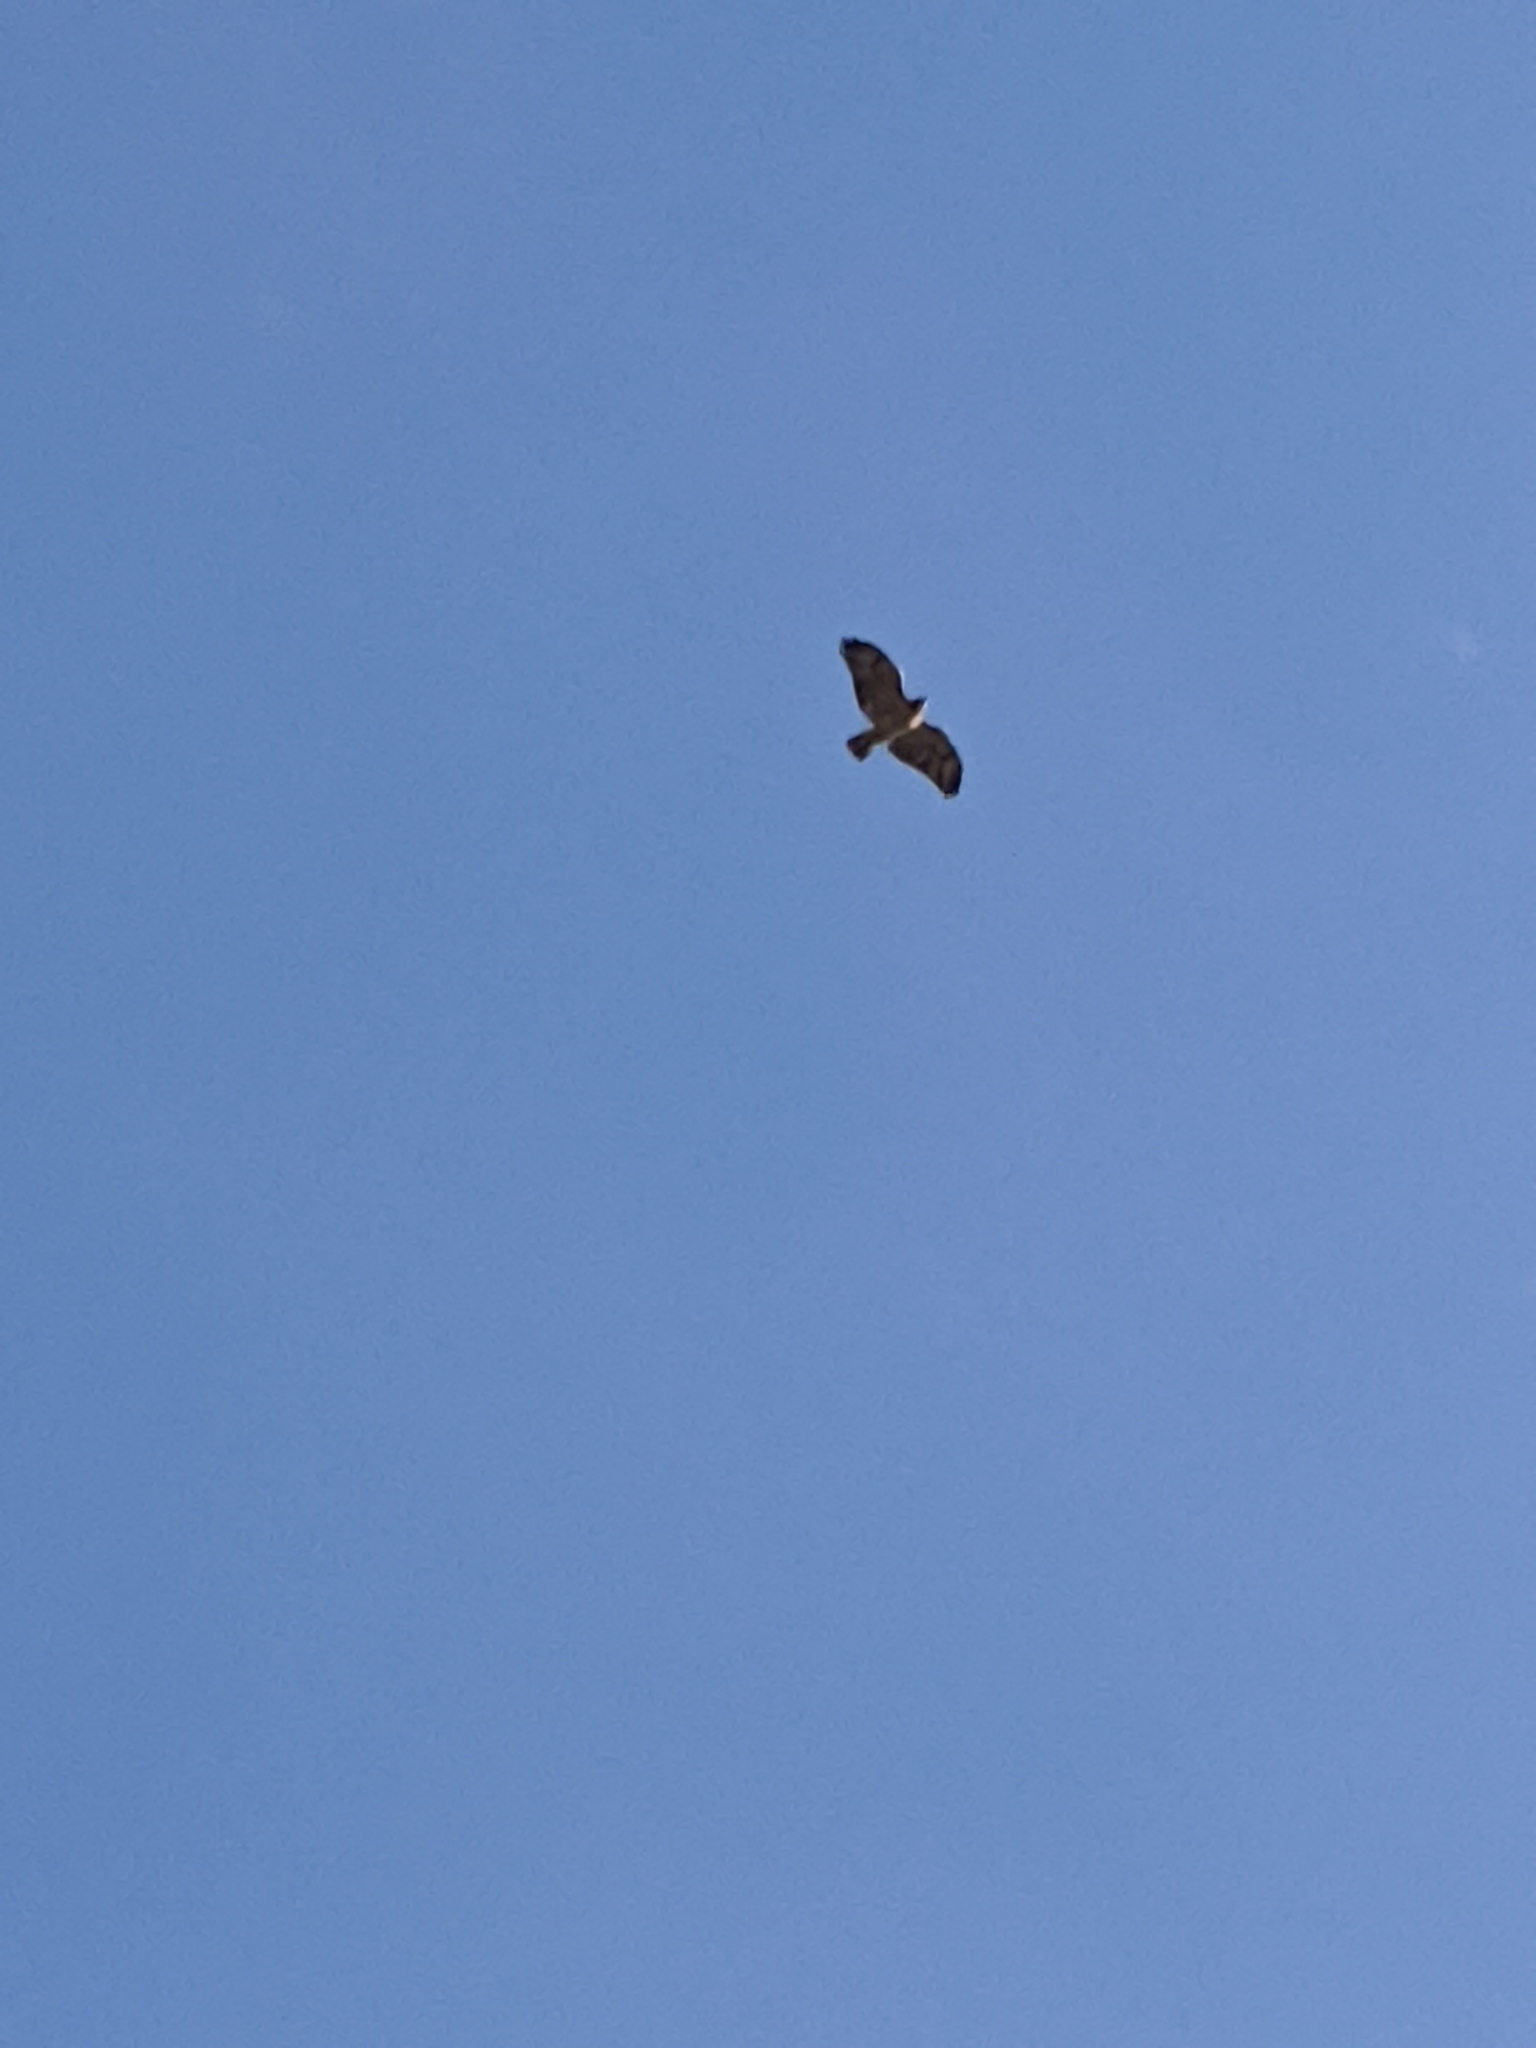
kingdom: Animalia
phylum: Chordata
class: Aves
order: Accipitriformes
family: Accipitridae
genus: Buteo
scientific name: Buteo jamaicensis
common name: Red-tailed hawk
